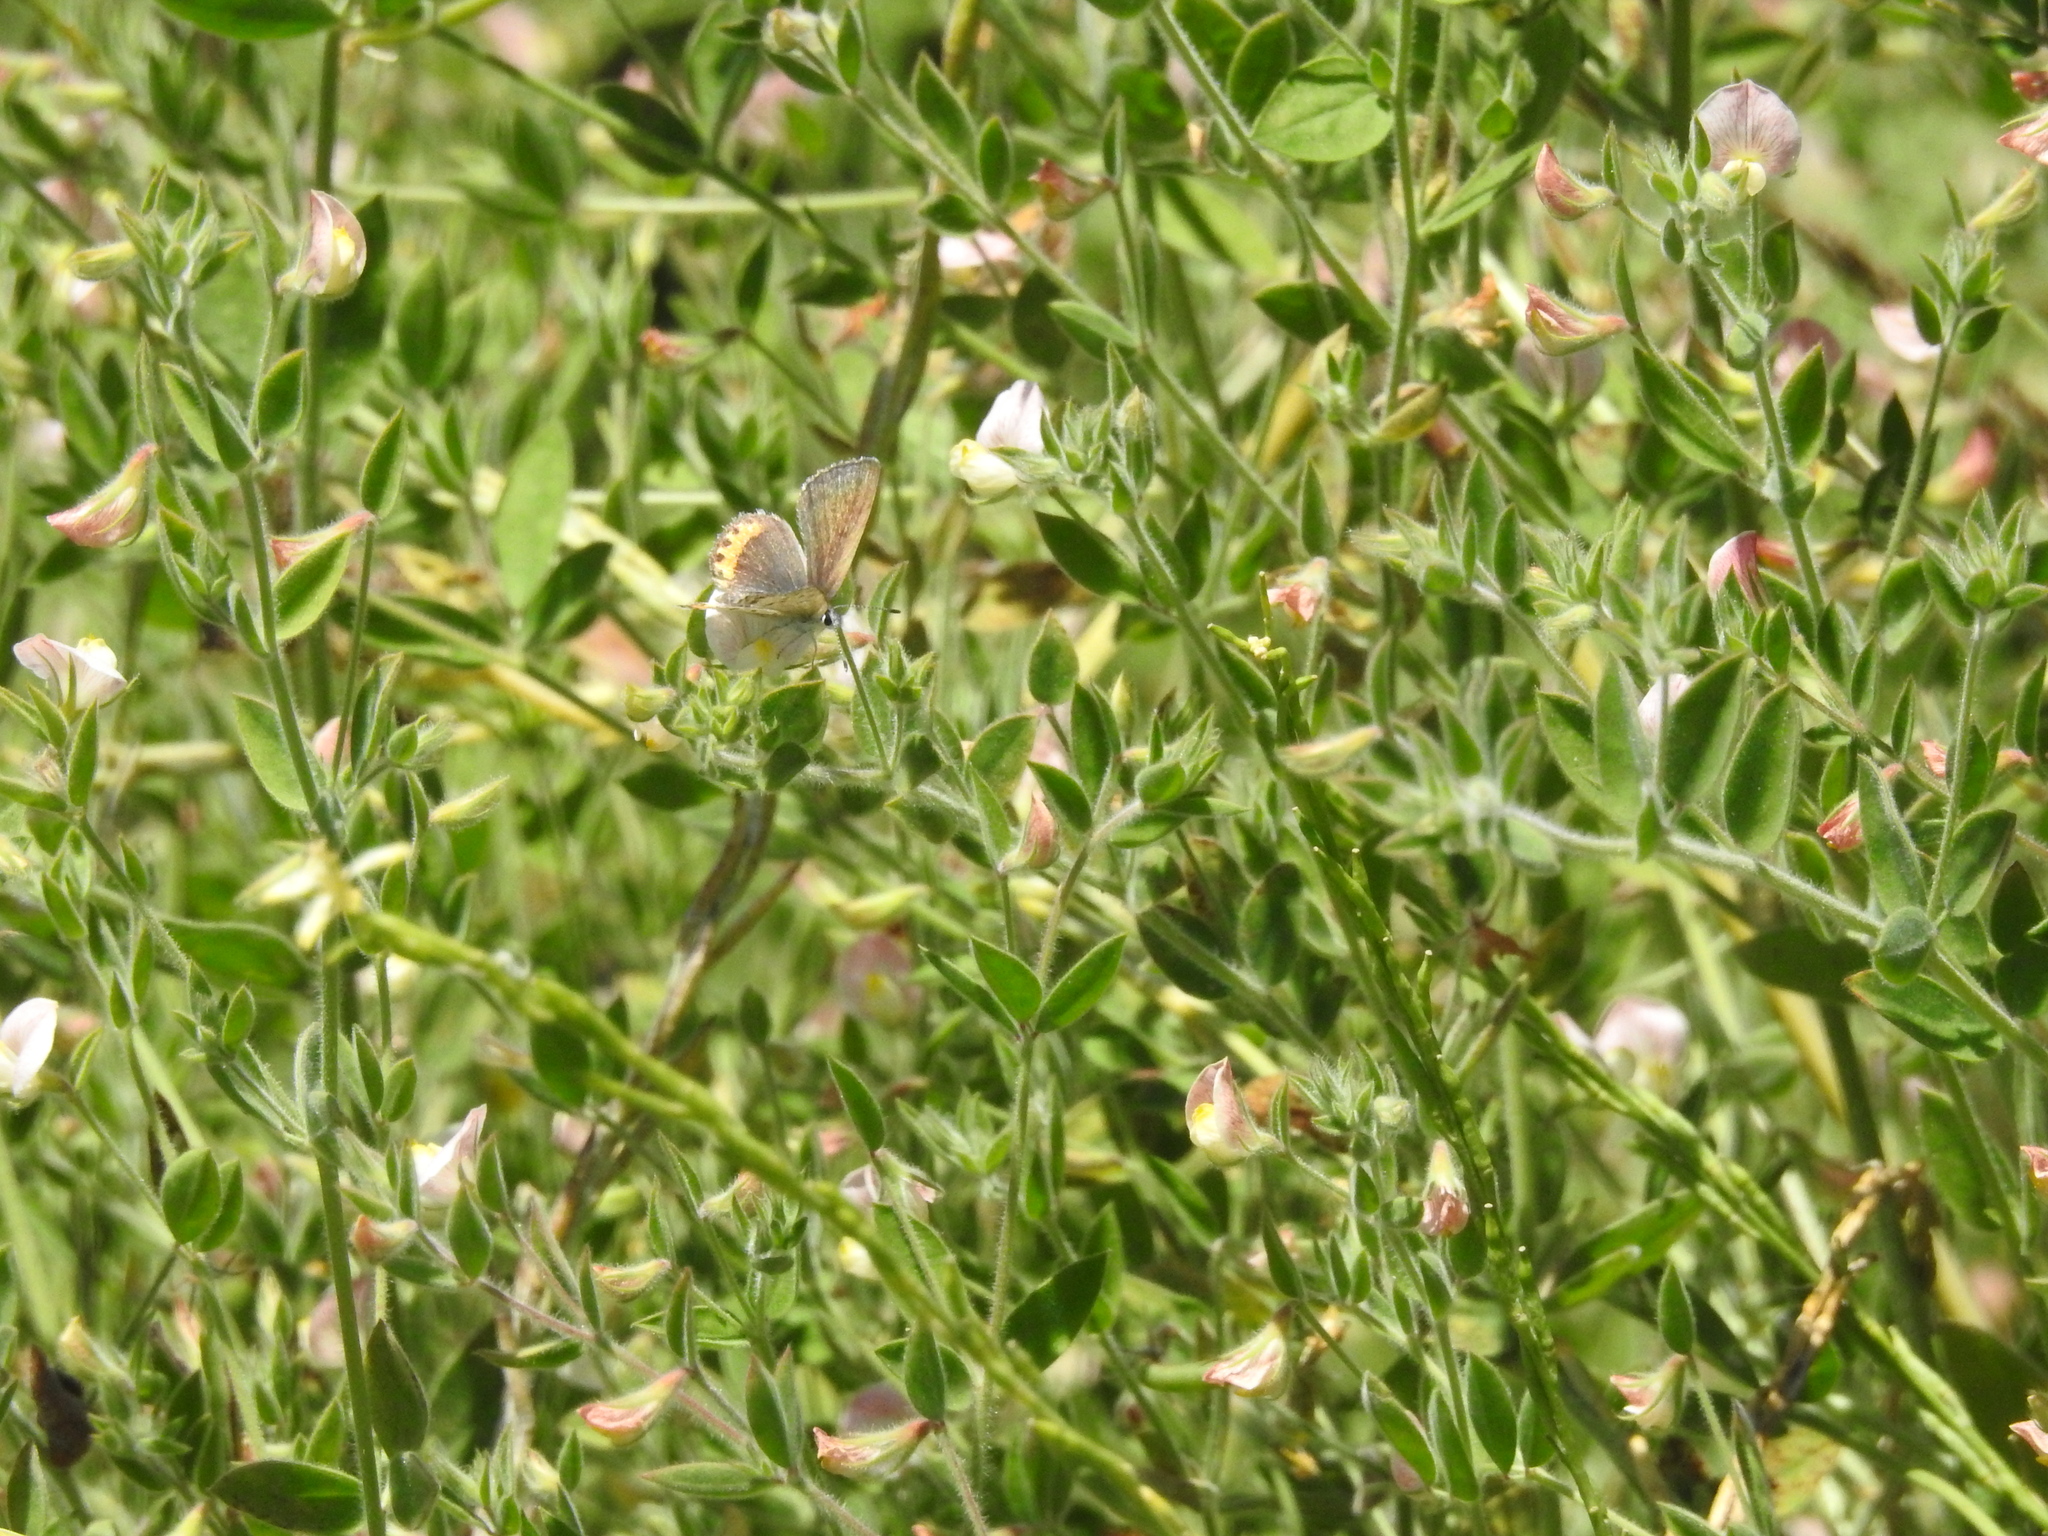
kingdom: Animalia
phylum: Arthropoda
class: Insecta
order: Lepidoptera
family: Lycaenidae
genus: Icaricia
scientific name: Icaricia acmon
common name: Acmon blue
